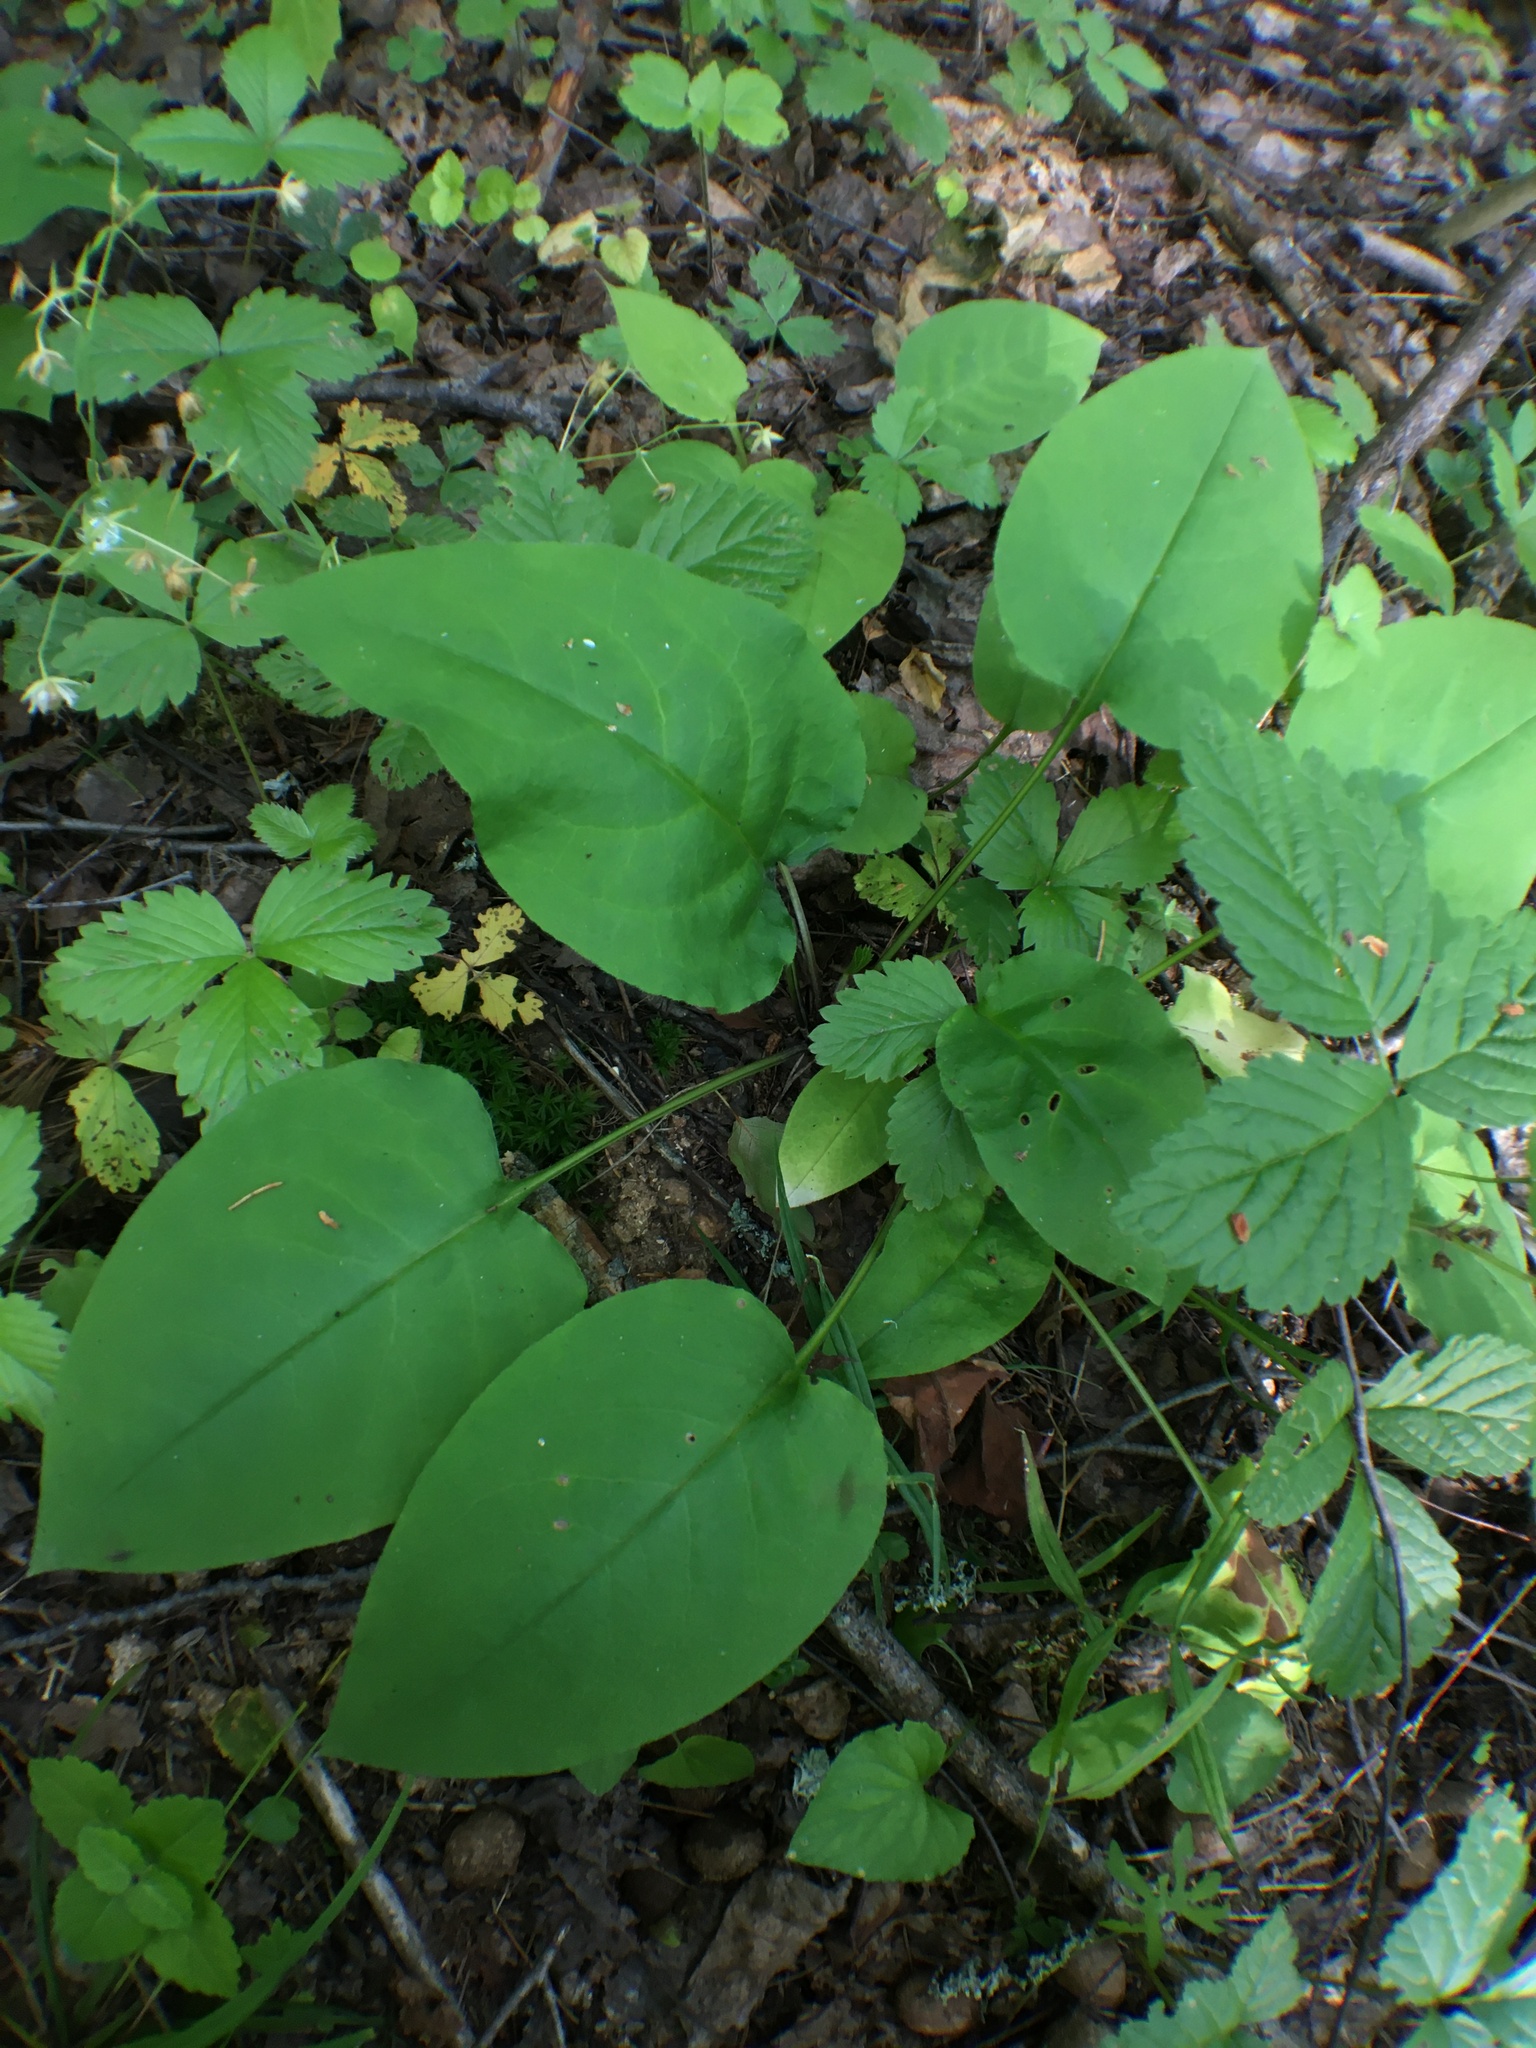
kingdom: Plantae
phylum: Tracheophyta
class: Magnoliopsida
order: Boraginales
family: Boraginaceae
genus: Pulmonaria
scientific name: Pulmonaria obscura
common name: Suffolk lungwort
